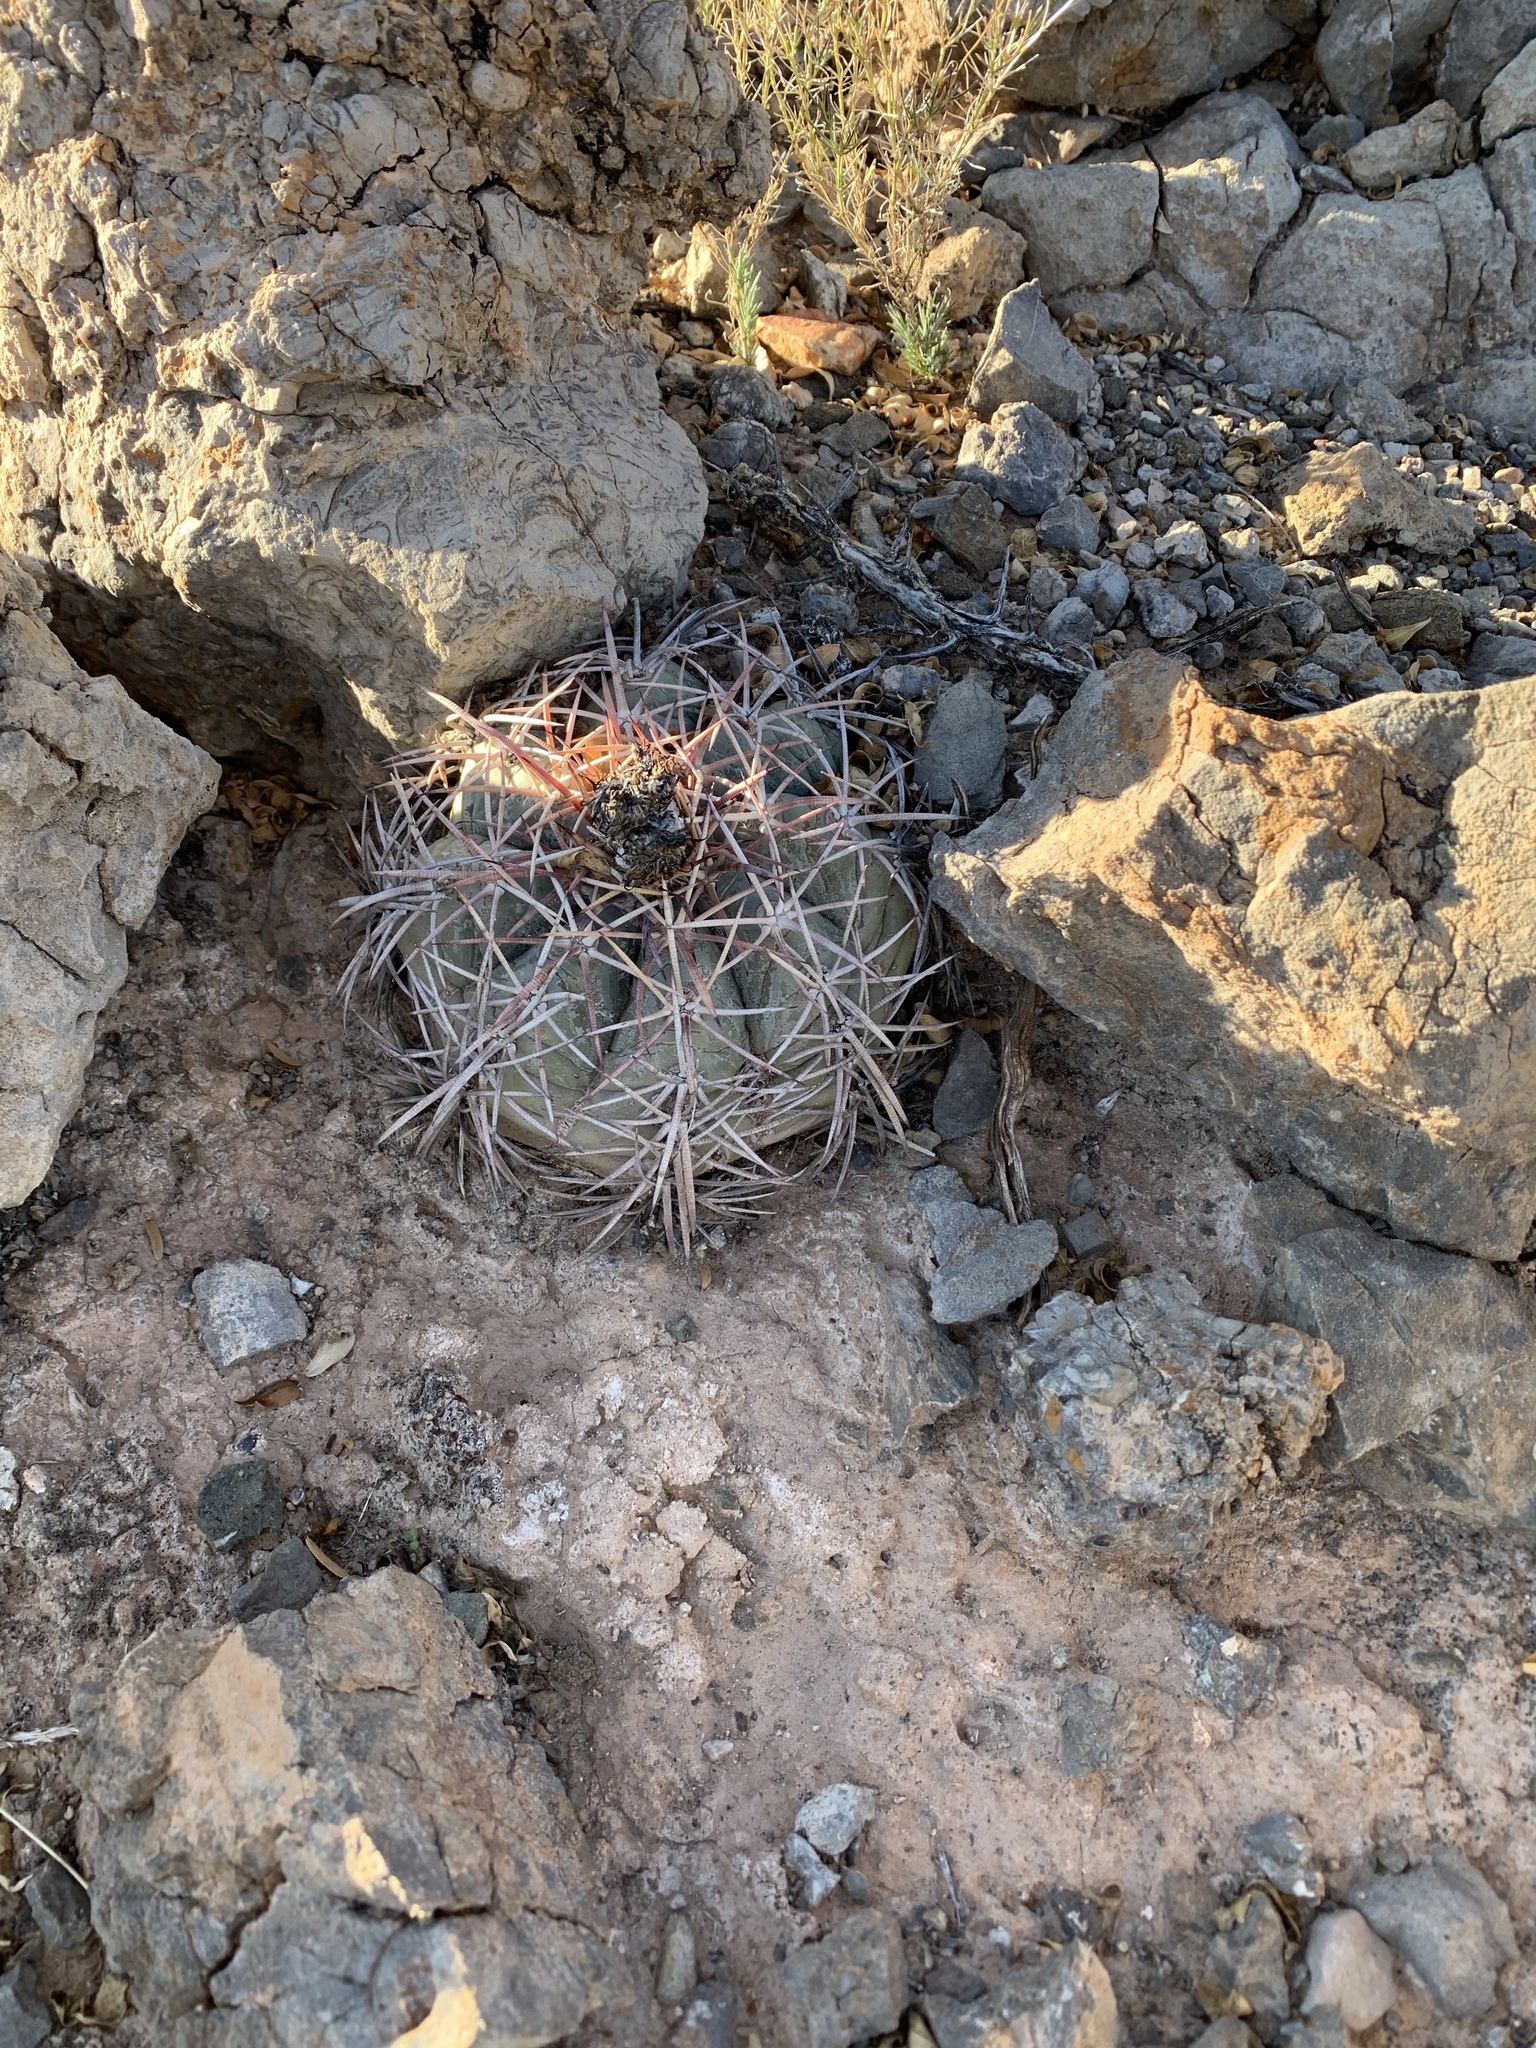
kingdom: Plantae
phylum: Tracheophyta
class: Magnoliopsida
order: Caryophyllales
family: Cactaceae
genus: Echinocactus
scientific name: Echinocactus horizonthalonius
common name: Devilshead
